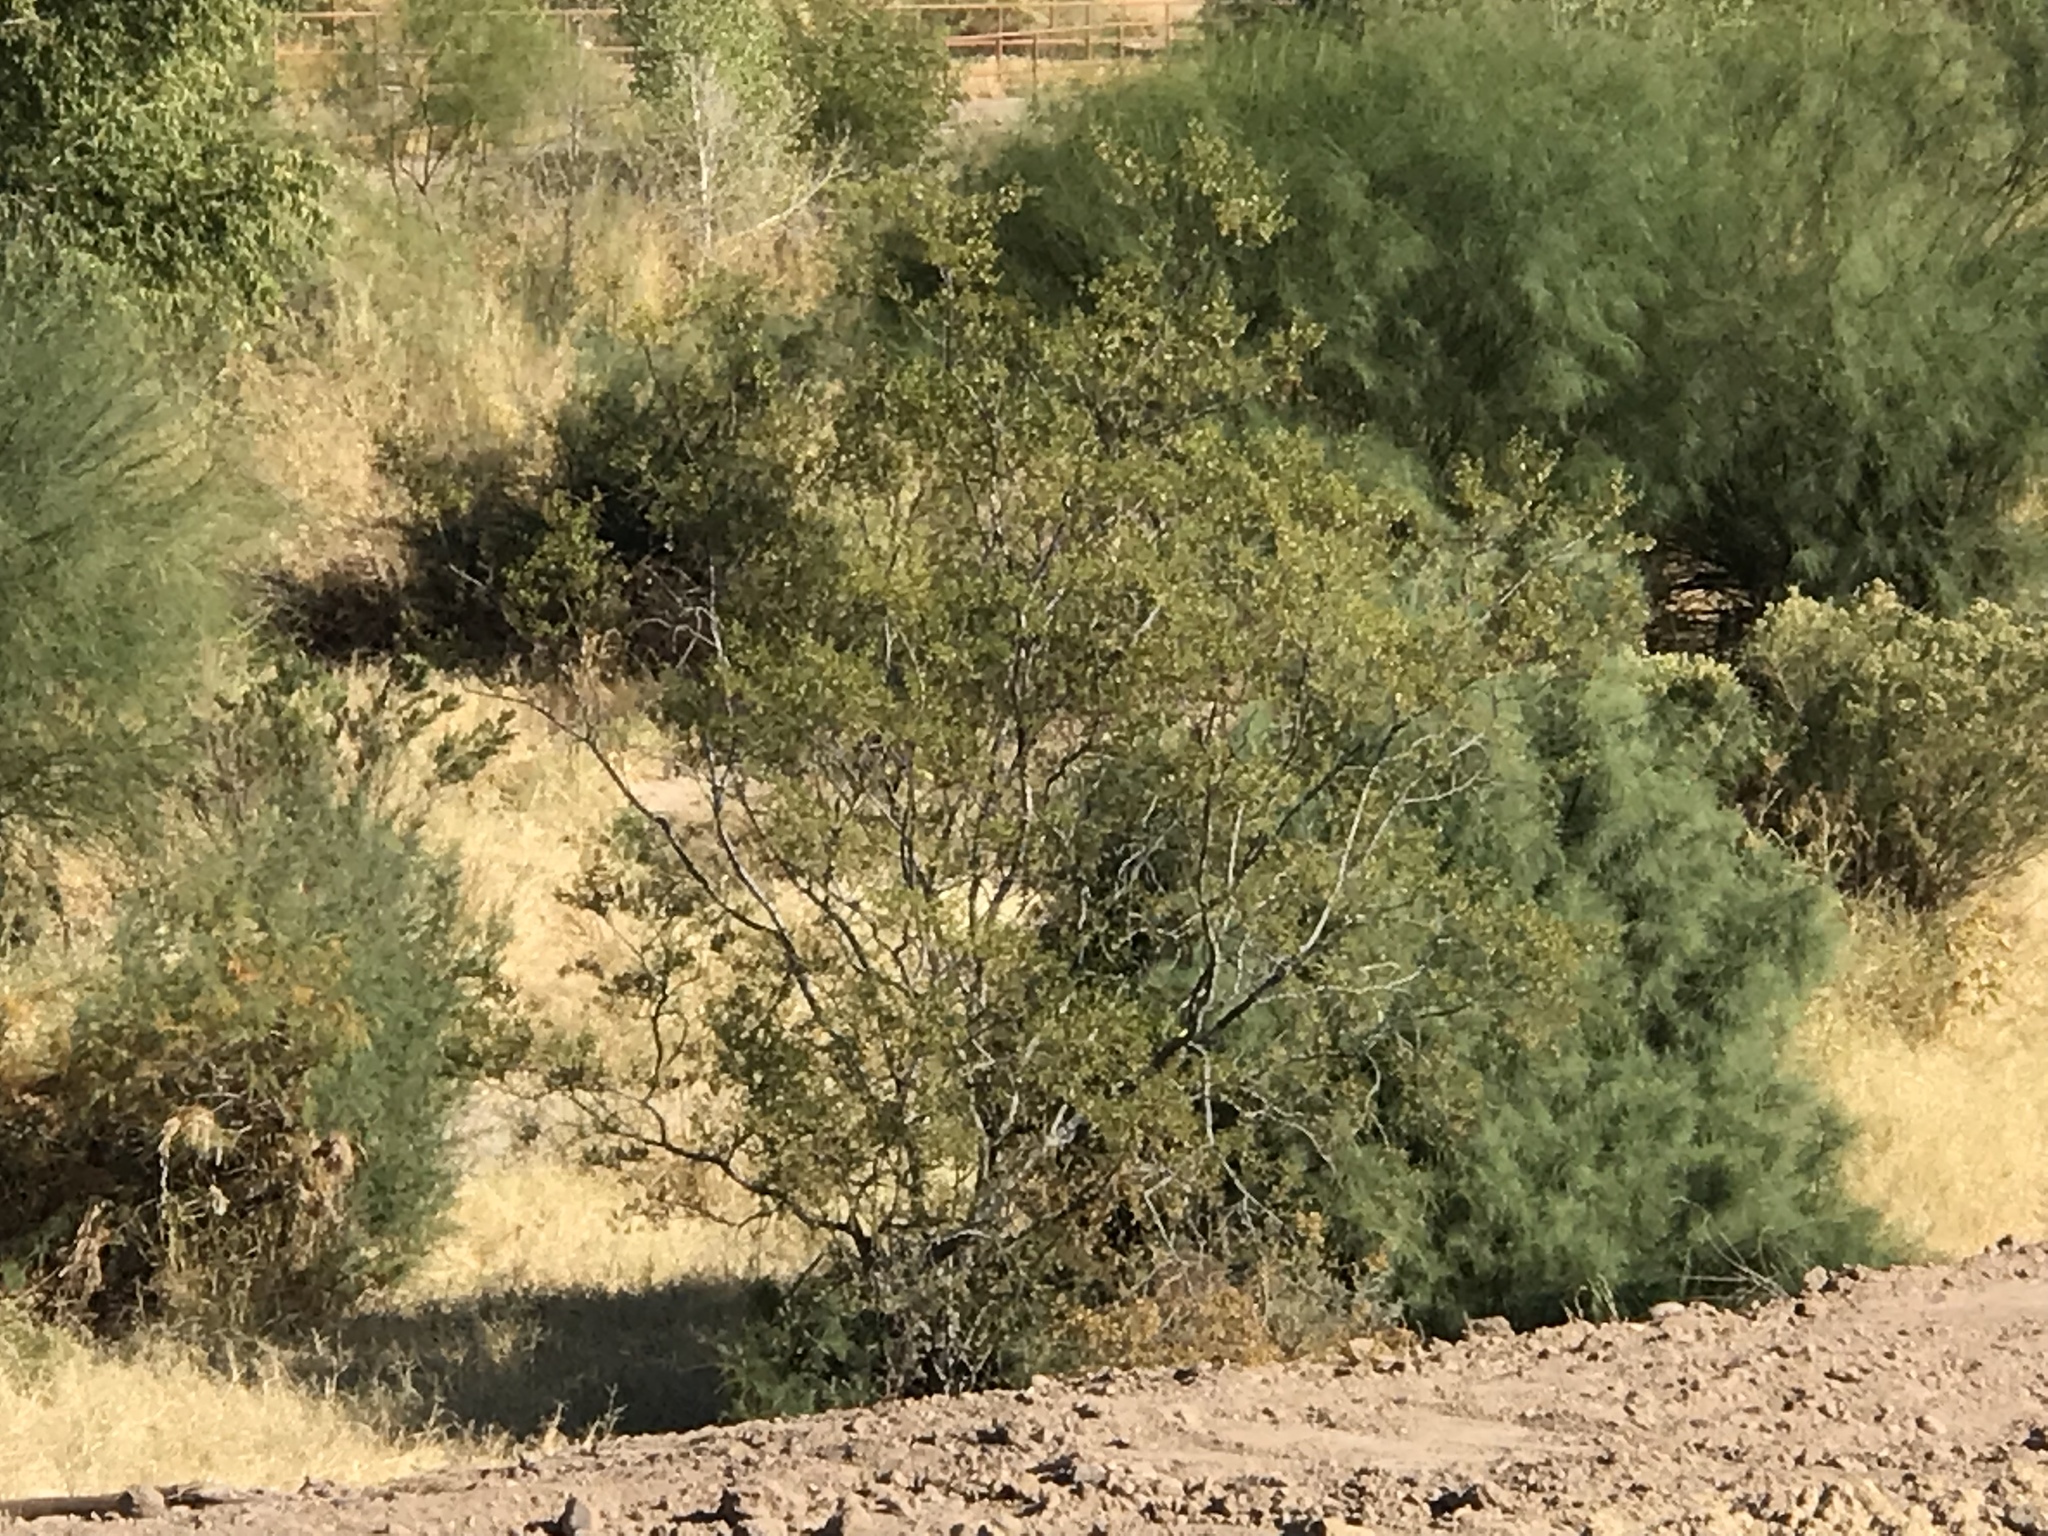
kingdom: Plantae
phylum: Tracheophyta
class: Magnoliopsida
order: Zygophyllales
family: Zygophyllaceae
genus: Larrea
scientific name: Larrea tridentata
